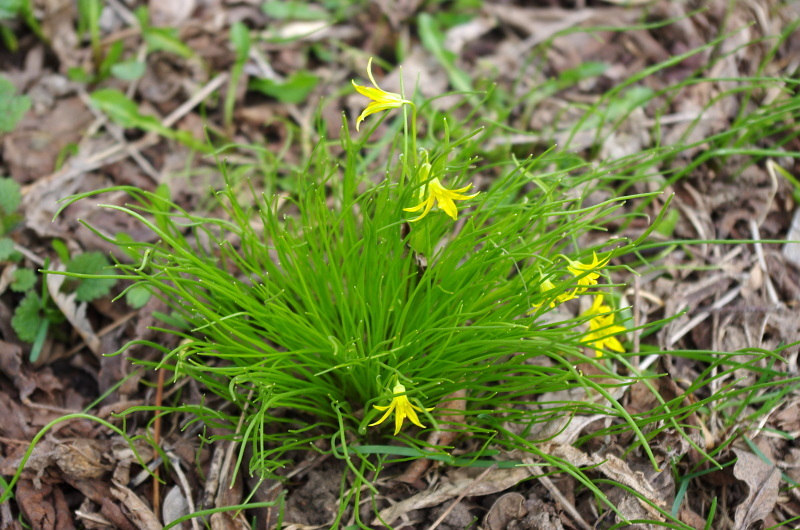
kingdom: Plantae
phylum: Tracheophyta
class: Liliopsida
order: Liliales
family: Liliaceae
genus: Gagea
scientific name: Gagea minima
